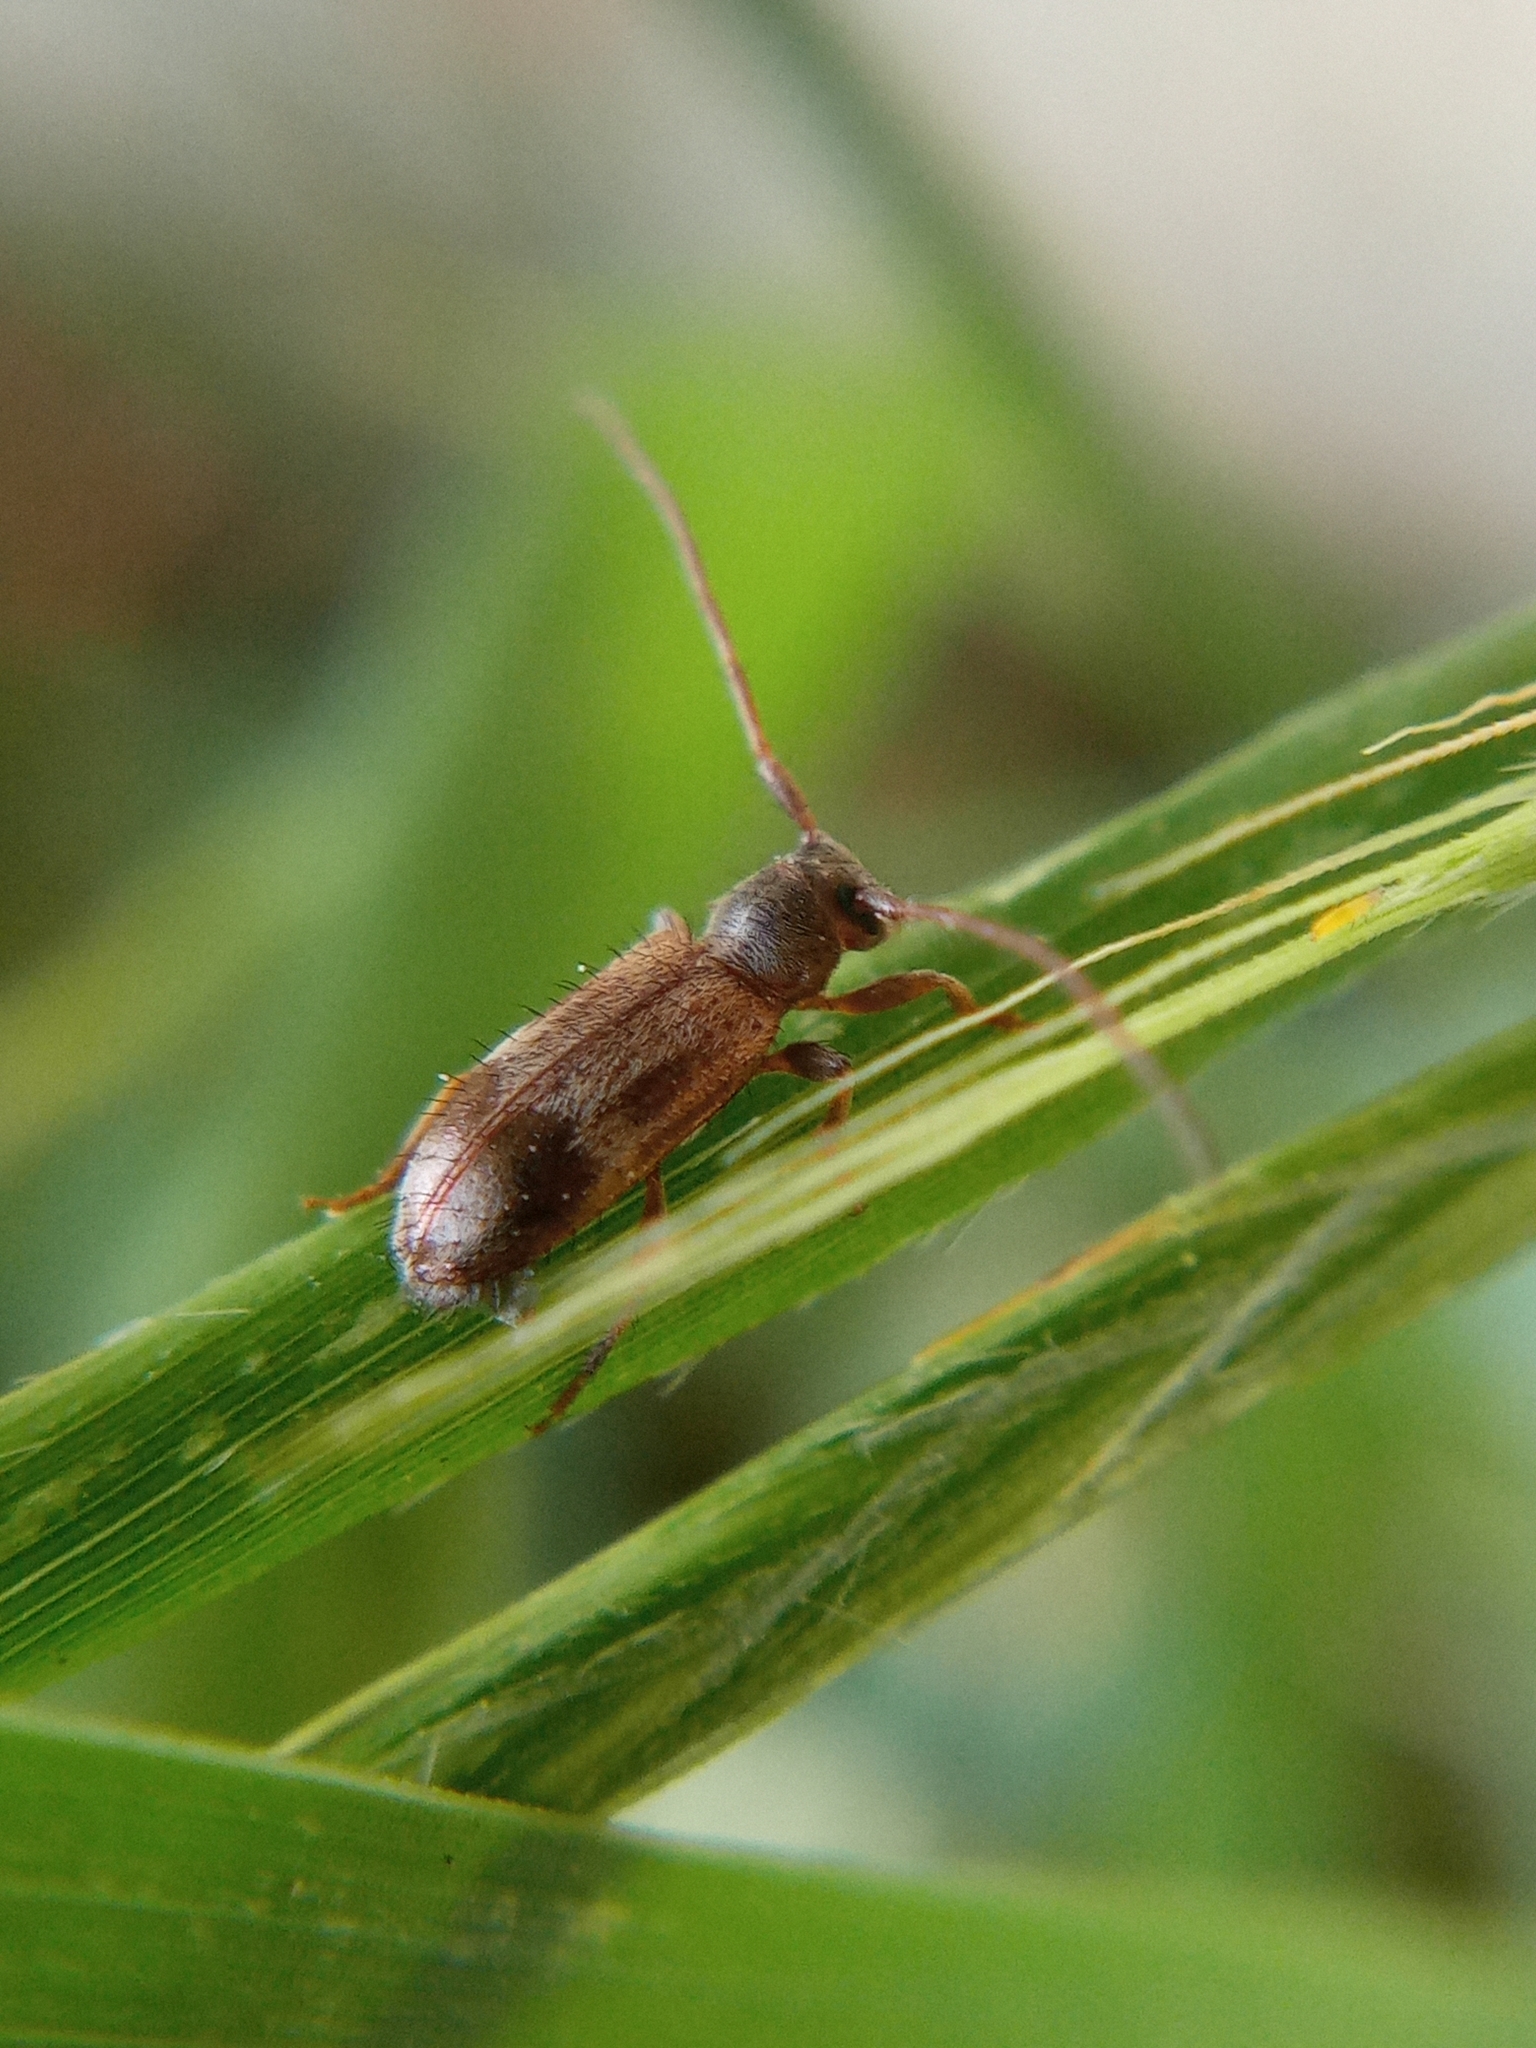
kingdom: Animalia
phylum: Arthropoda
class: Insecta
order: Coleoptera
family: Cerambycidae
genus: Exocentrus
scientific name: Exocentrus lusitanus
